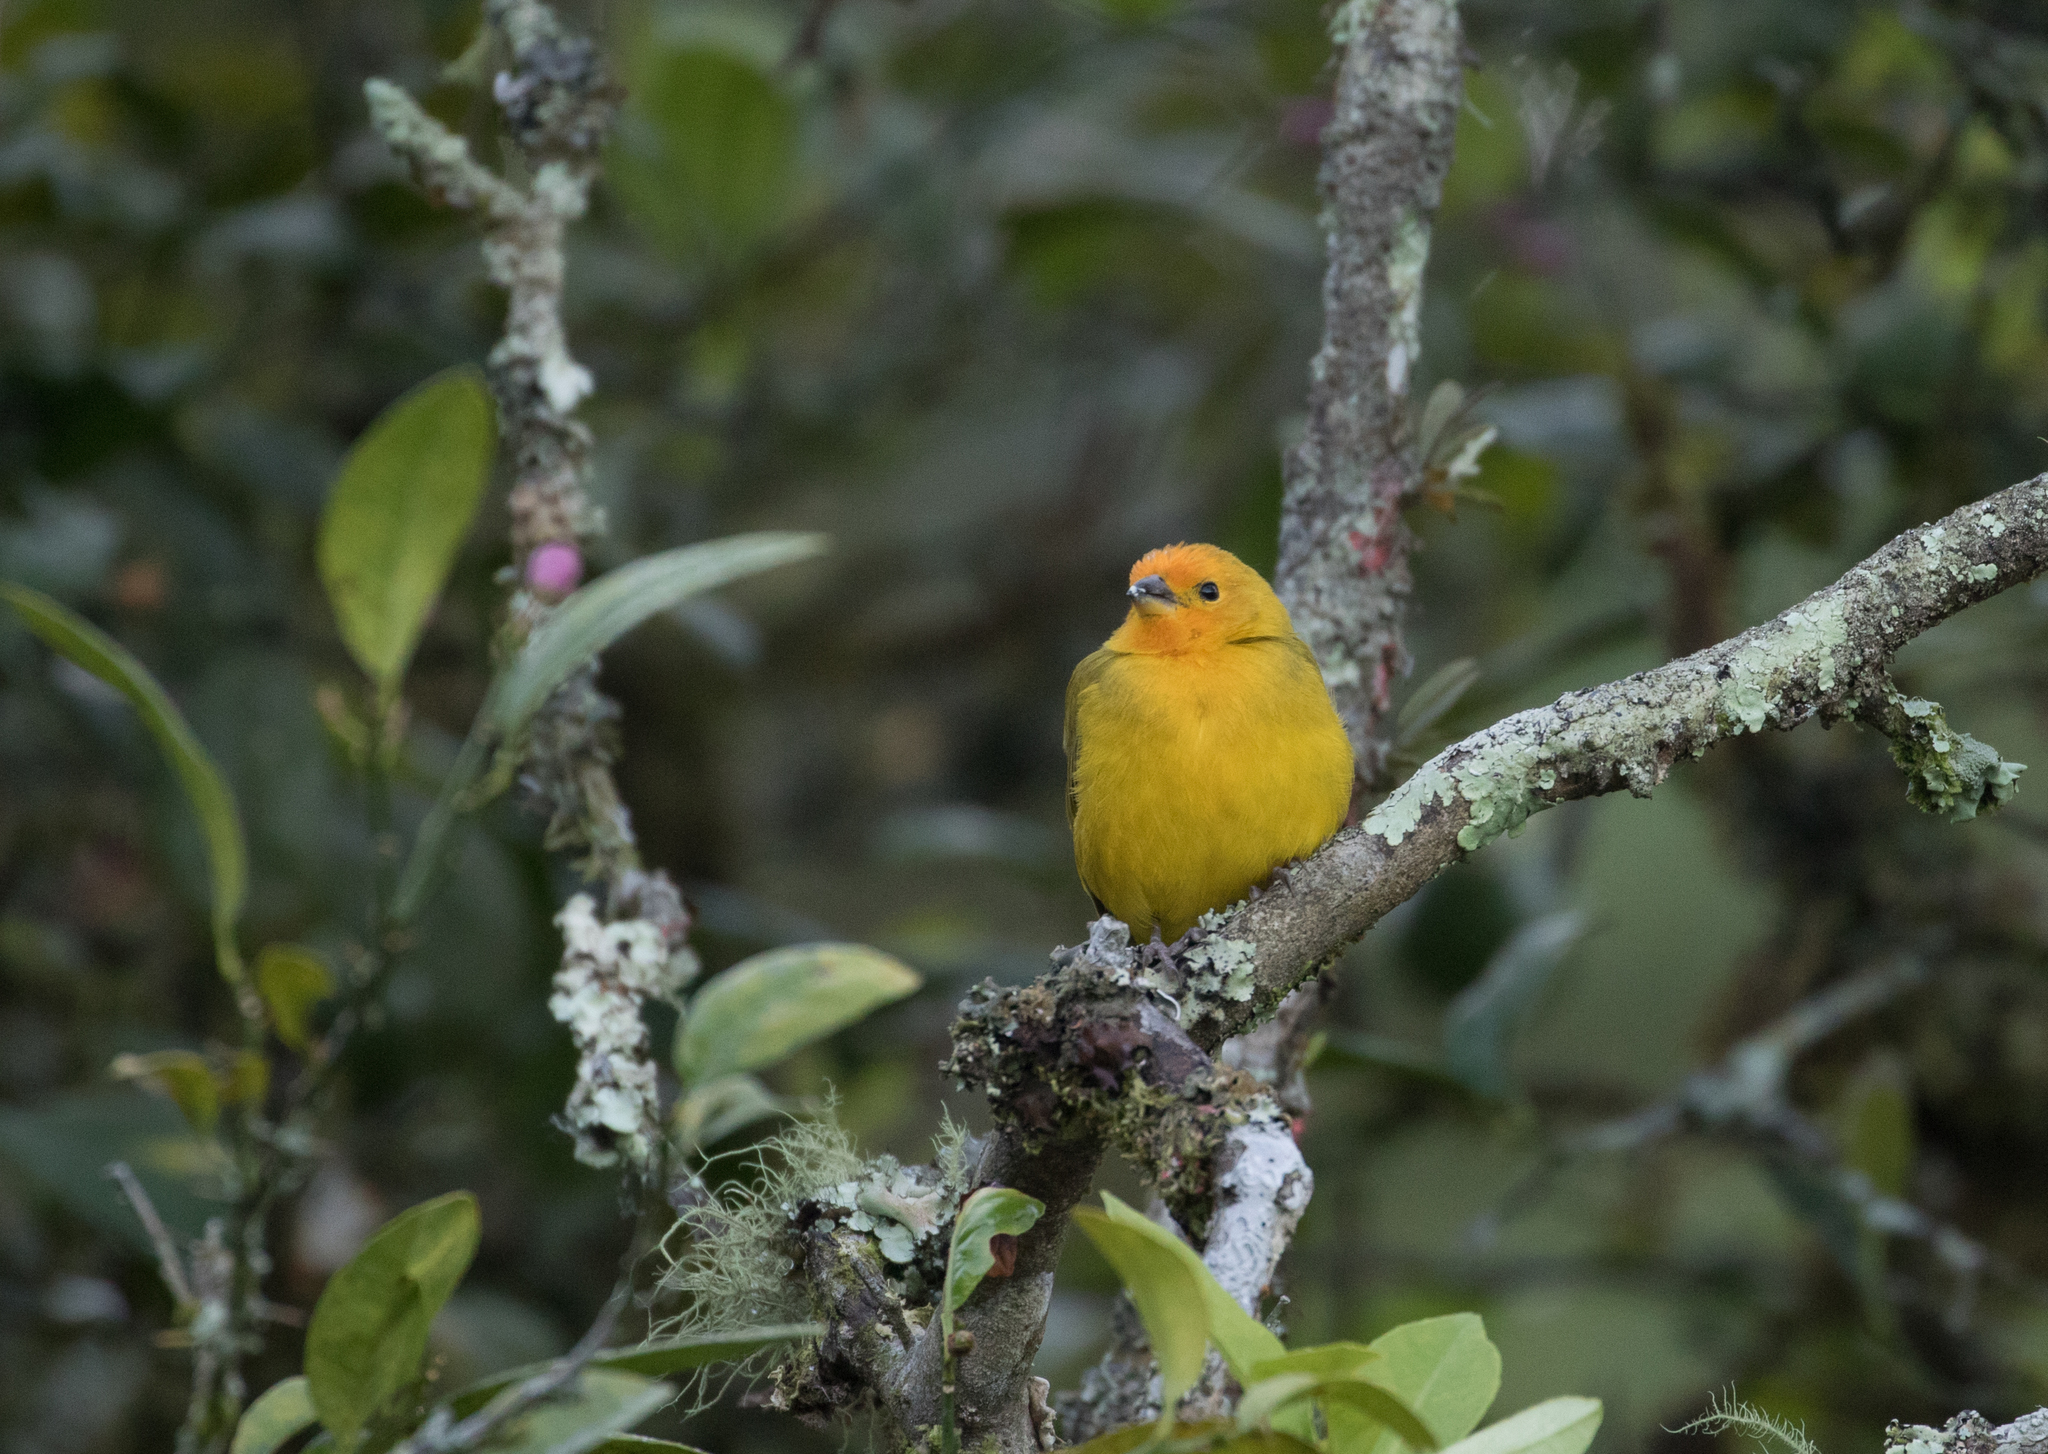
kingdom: Animalia
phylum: Chordata
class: Aves
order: Passeriformes
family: Thraupidae
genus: Sicalis
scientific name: Sicalis flaveola
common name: Saffron finch
